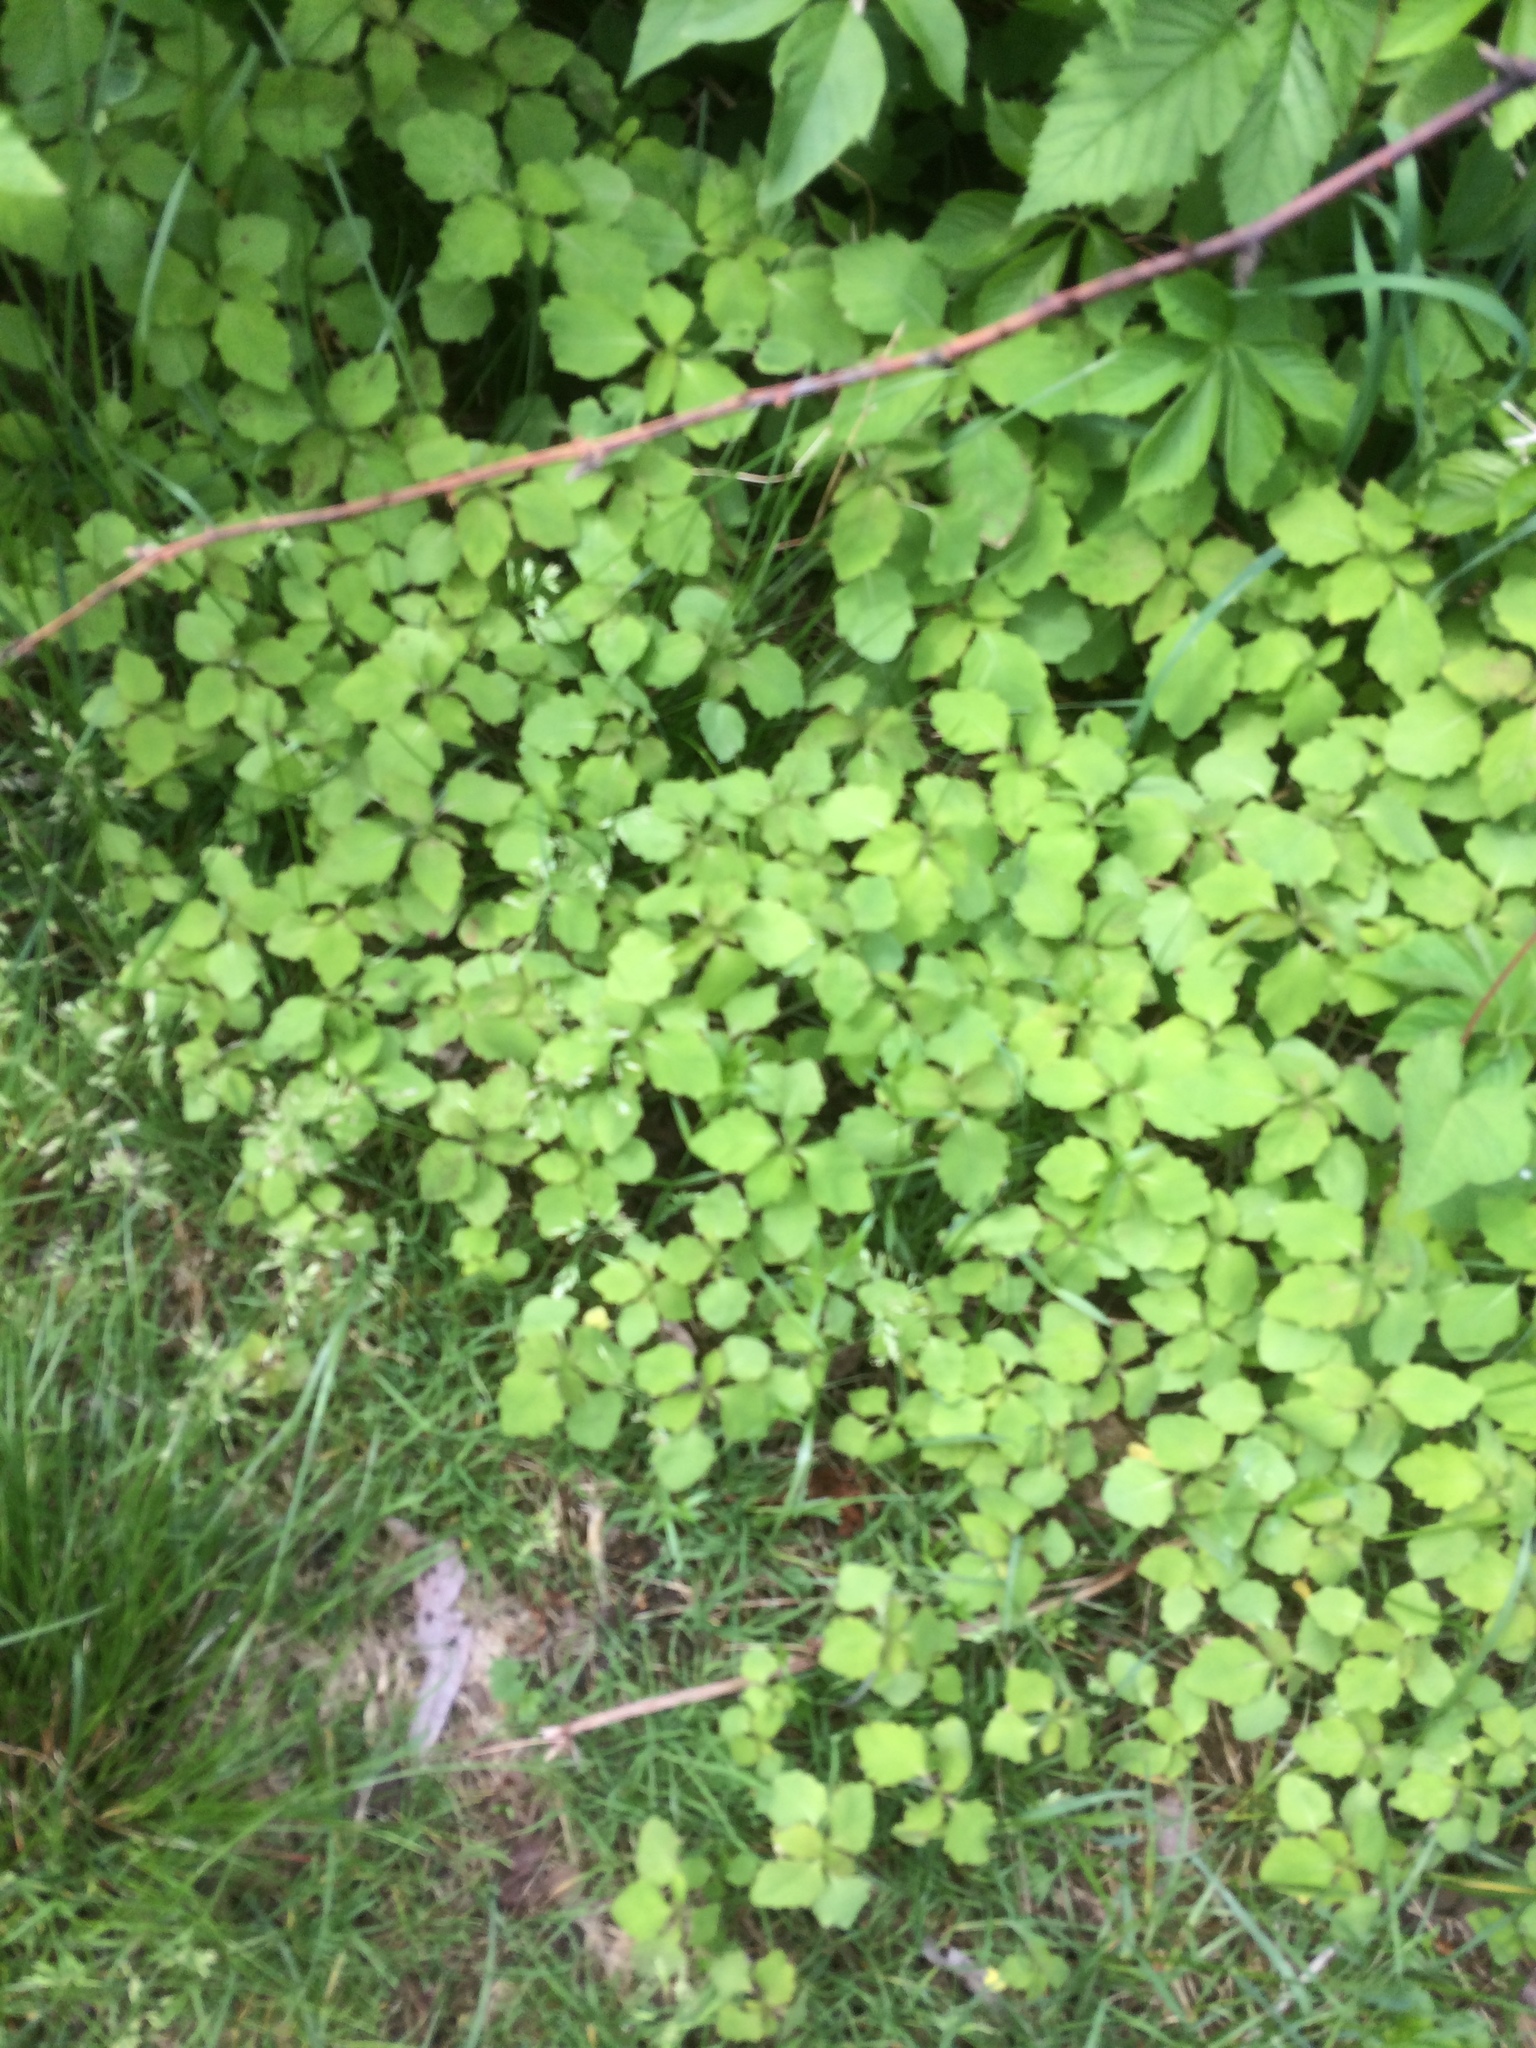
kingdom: Plantae
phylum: Tracheophyta
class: Magnoliopsida
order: Ericales
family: Balsaminaceae
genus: Impatiens
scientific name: Impatiens capensis
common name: Orange balsam
